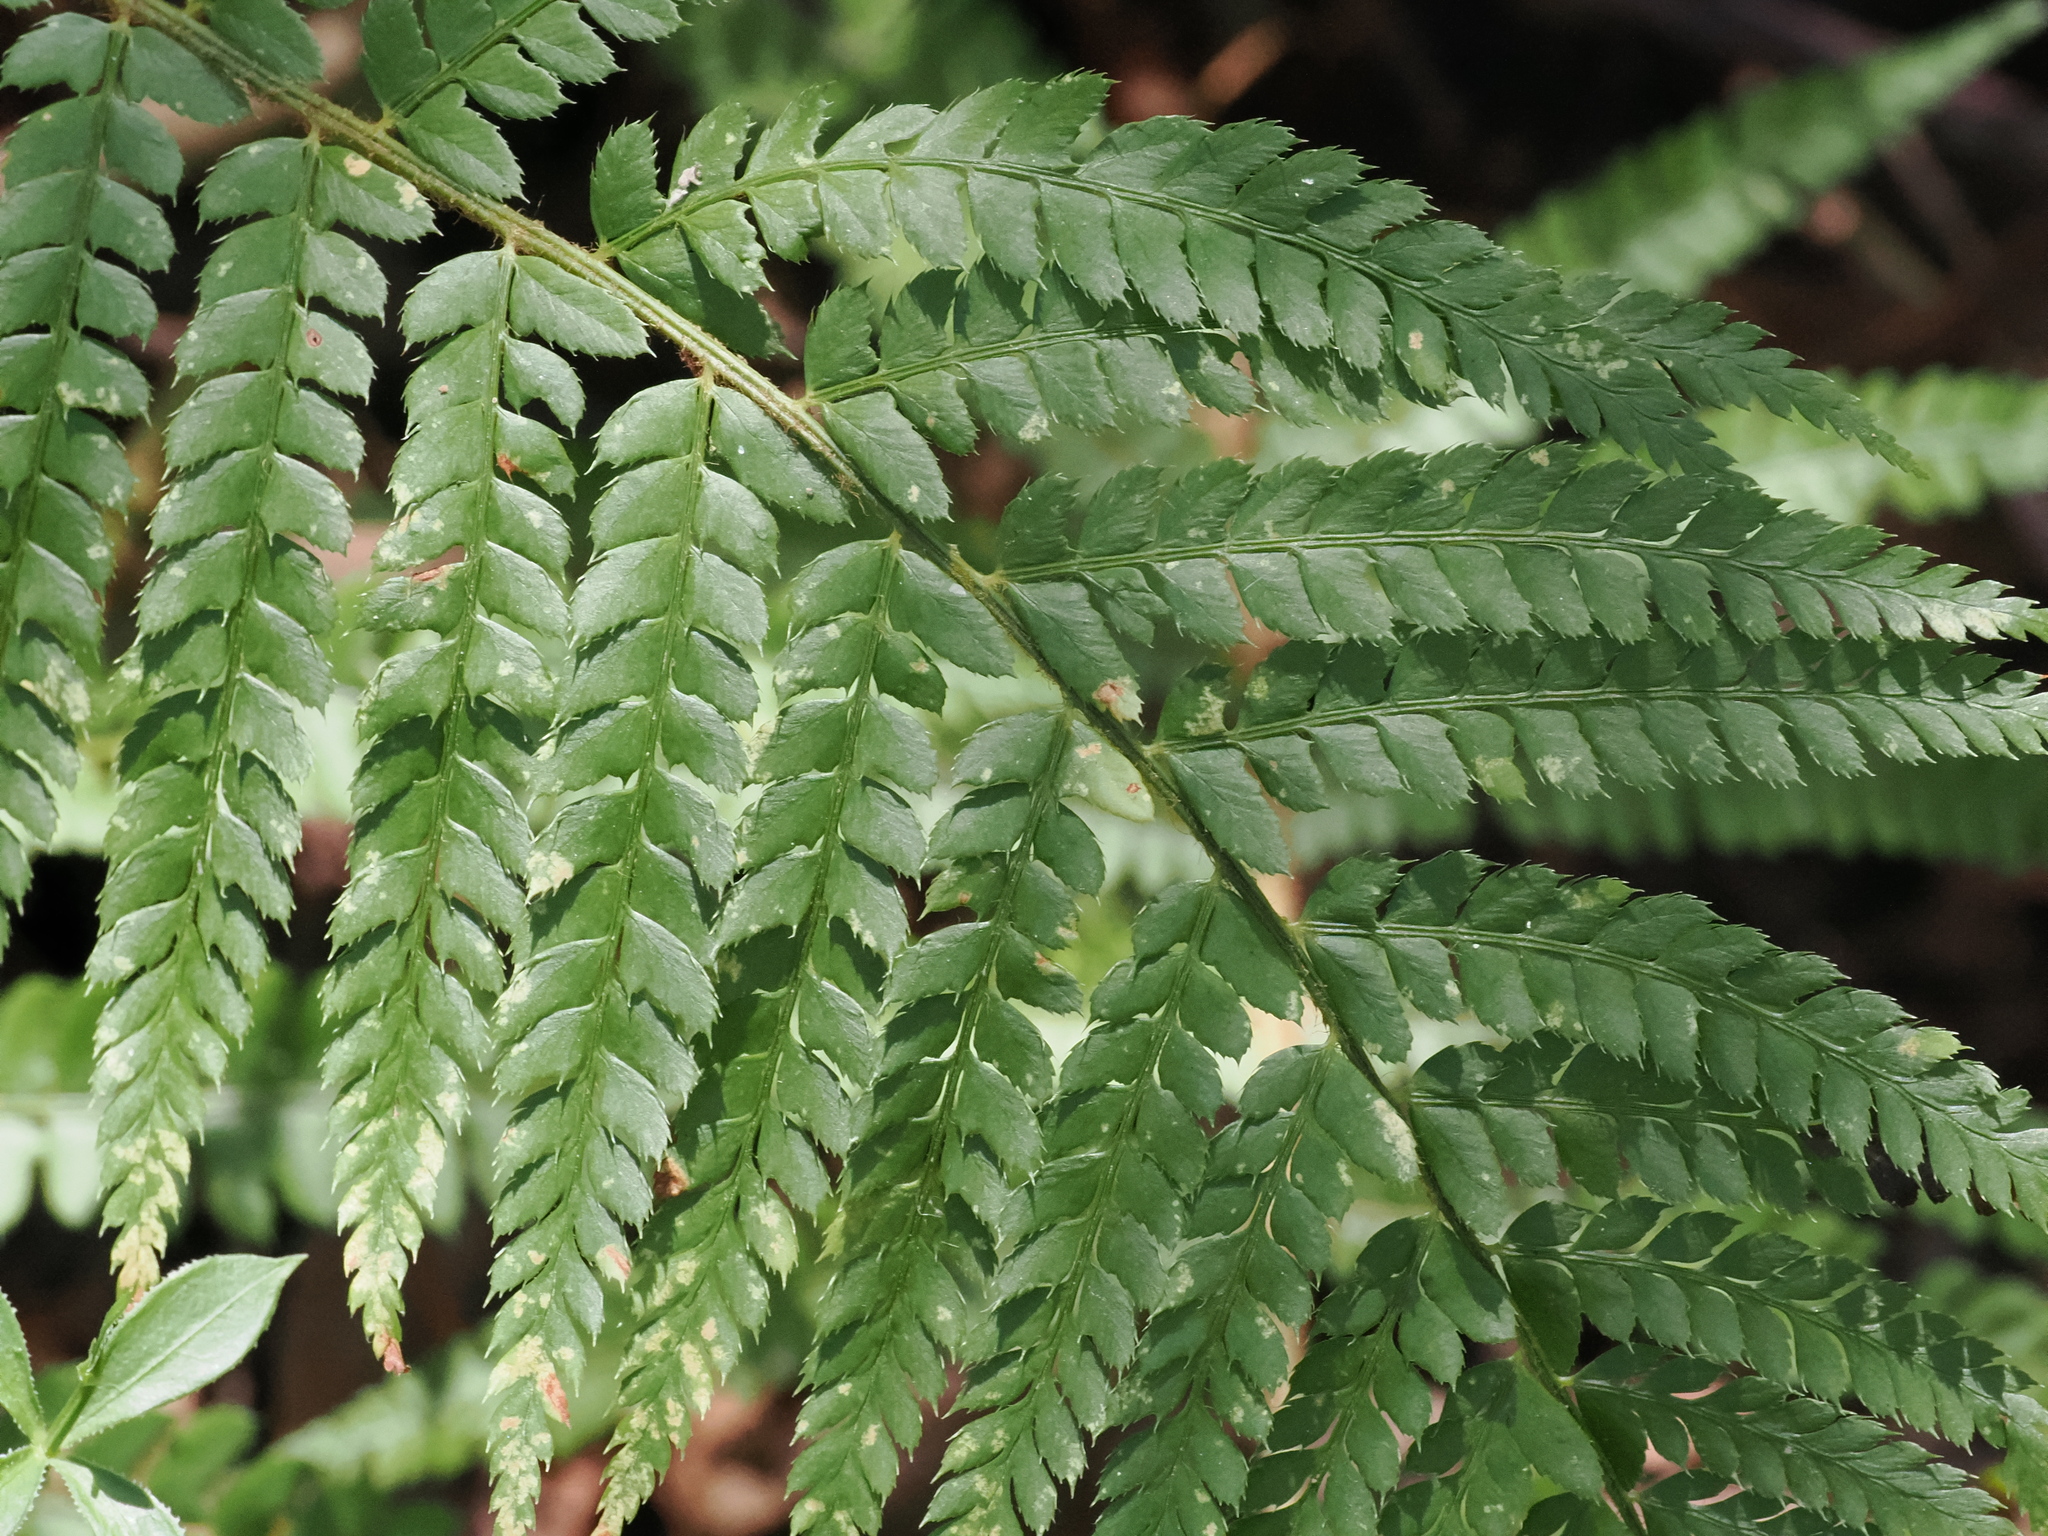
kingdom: Plantae
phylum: Tracheophyta
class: Polypodiopsida
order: Polypodiales
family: Dryopteridaceae
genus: Polystichum
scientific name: Polystichum setiferum
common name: Soft shield-fern
